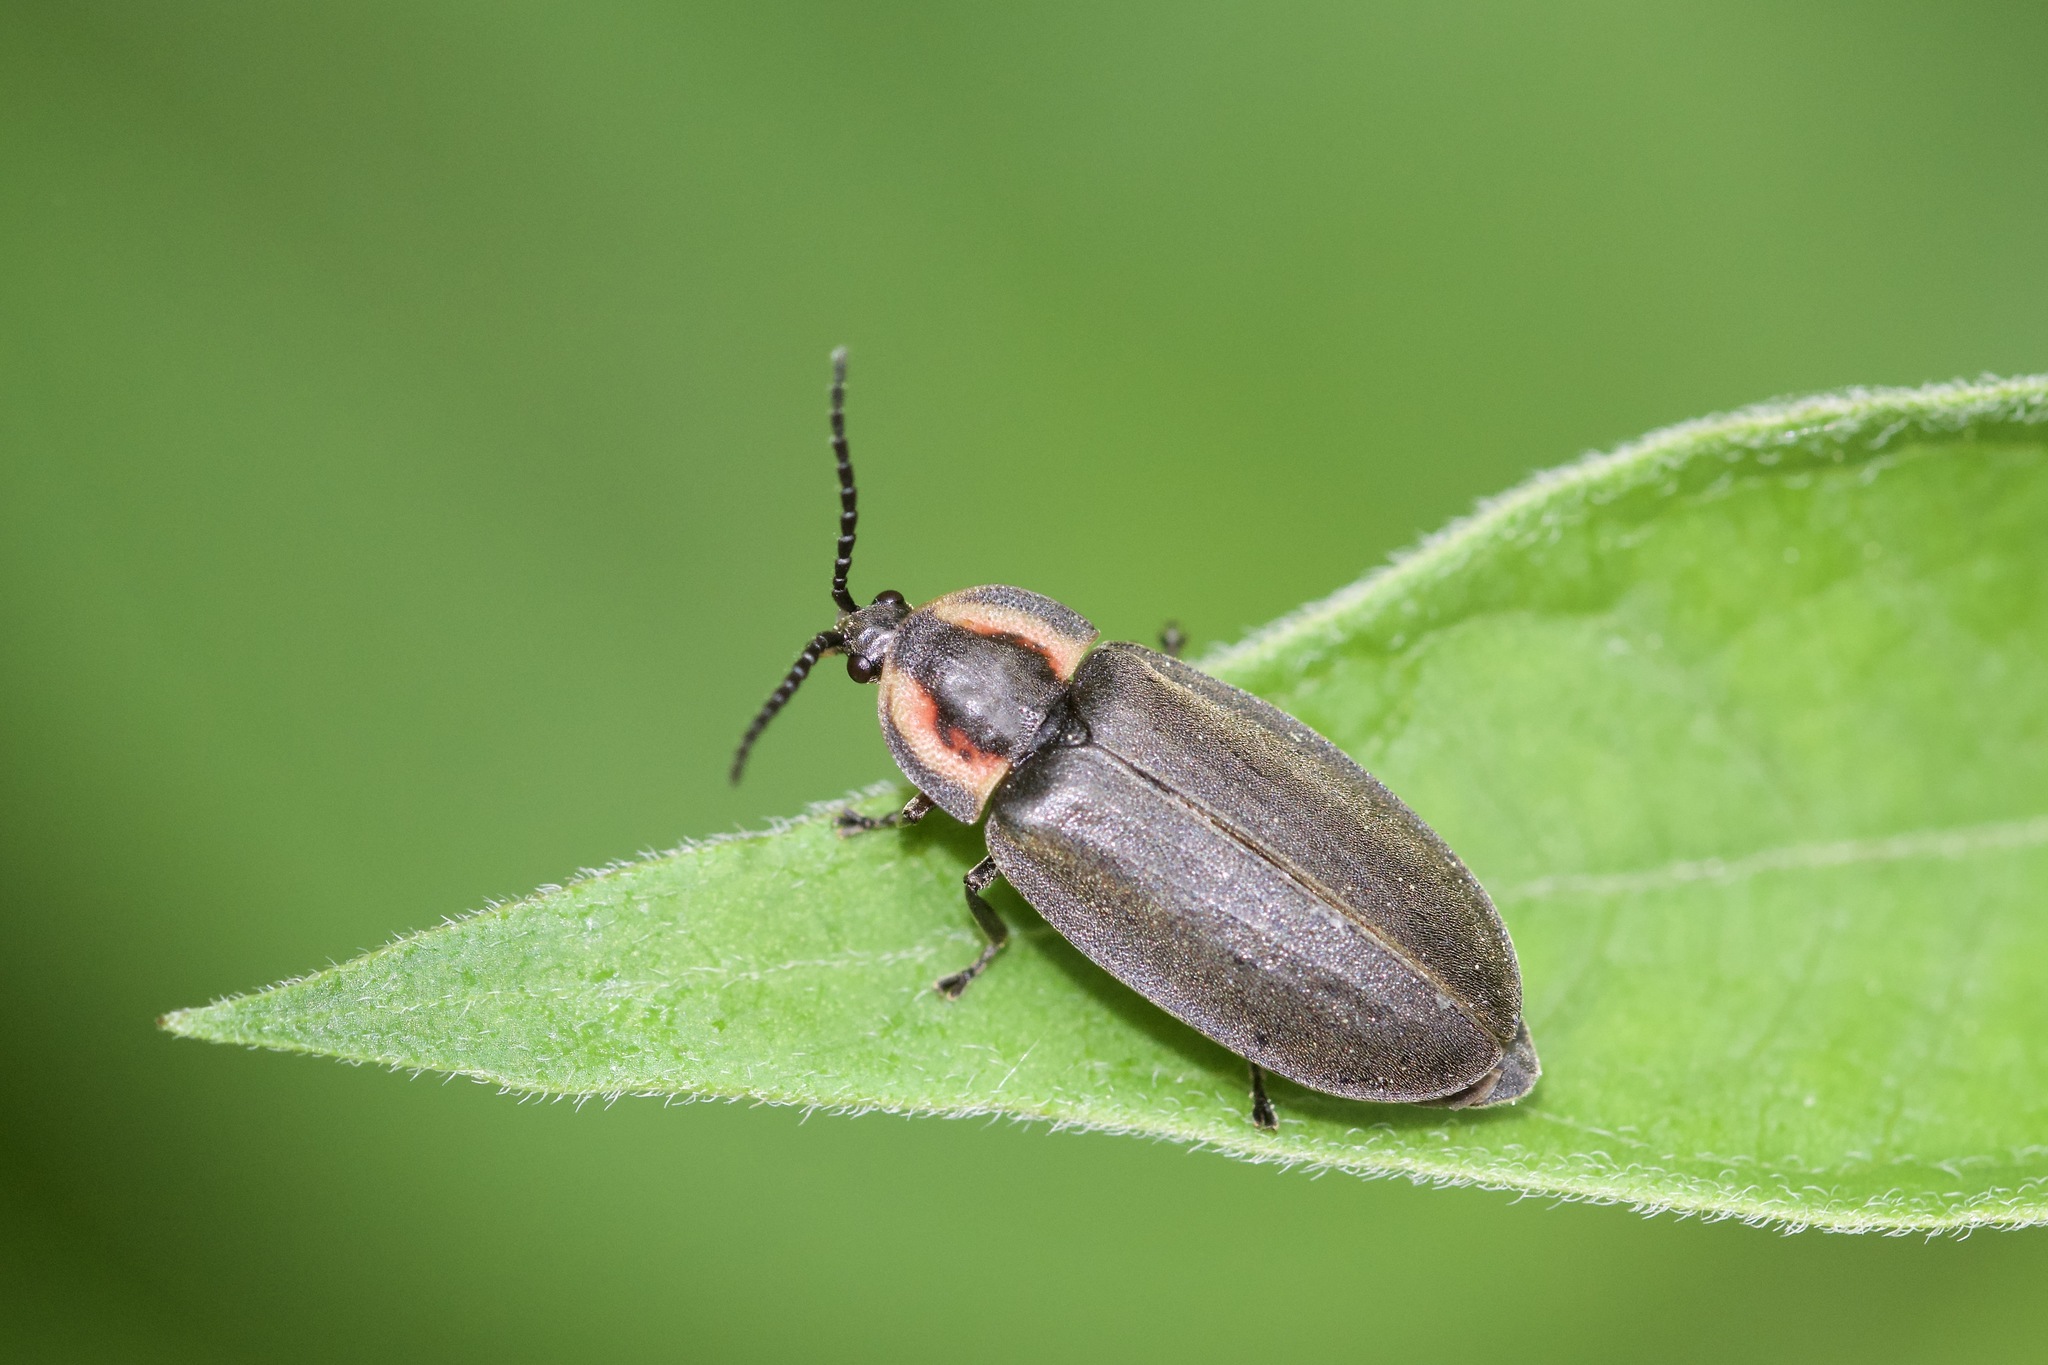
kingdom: Animalia
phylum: Arthropoda
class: Insecta
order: Coleoptera
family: Lampyridae
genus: Photinus
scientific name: Photinus corrusca
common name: Winter firefly
